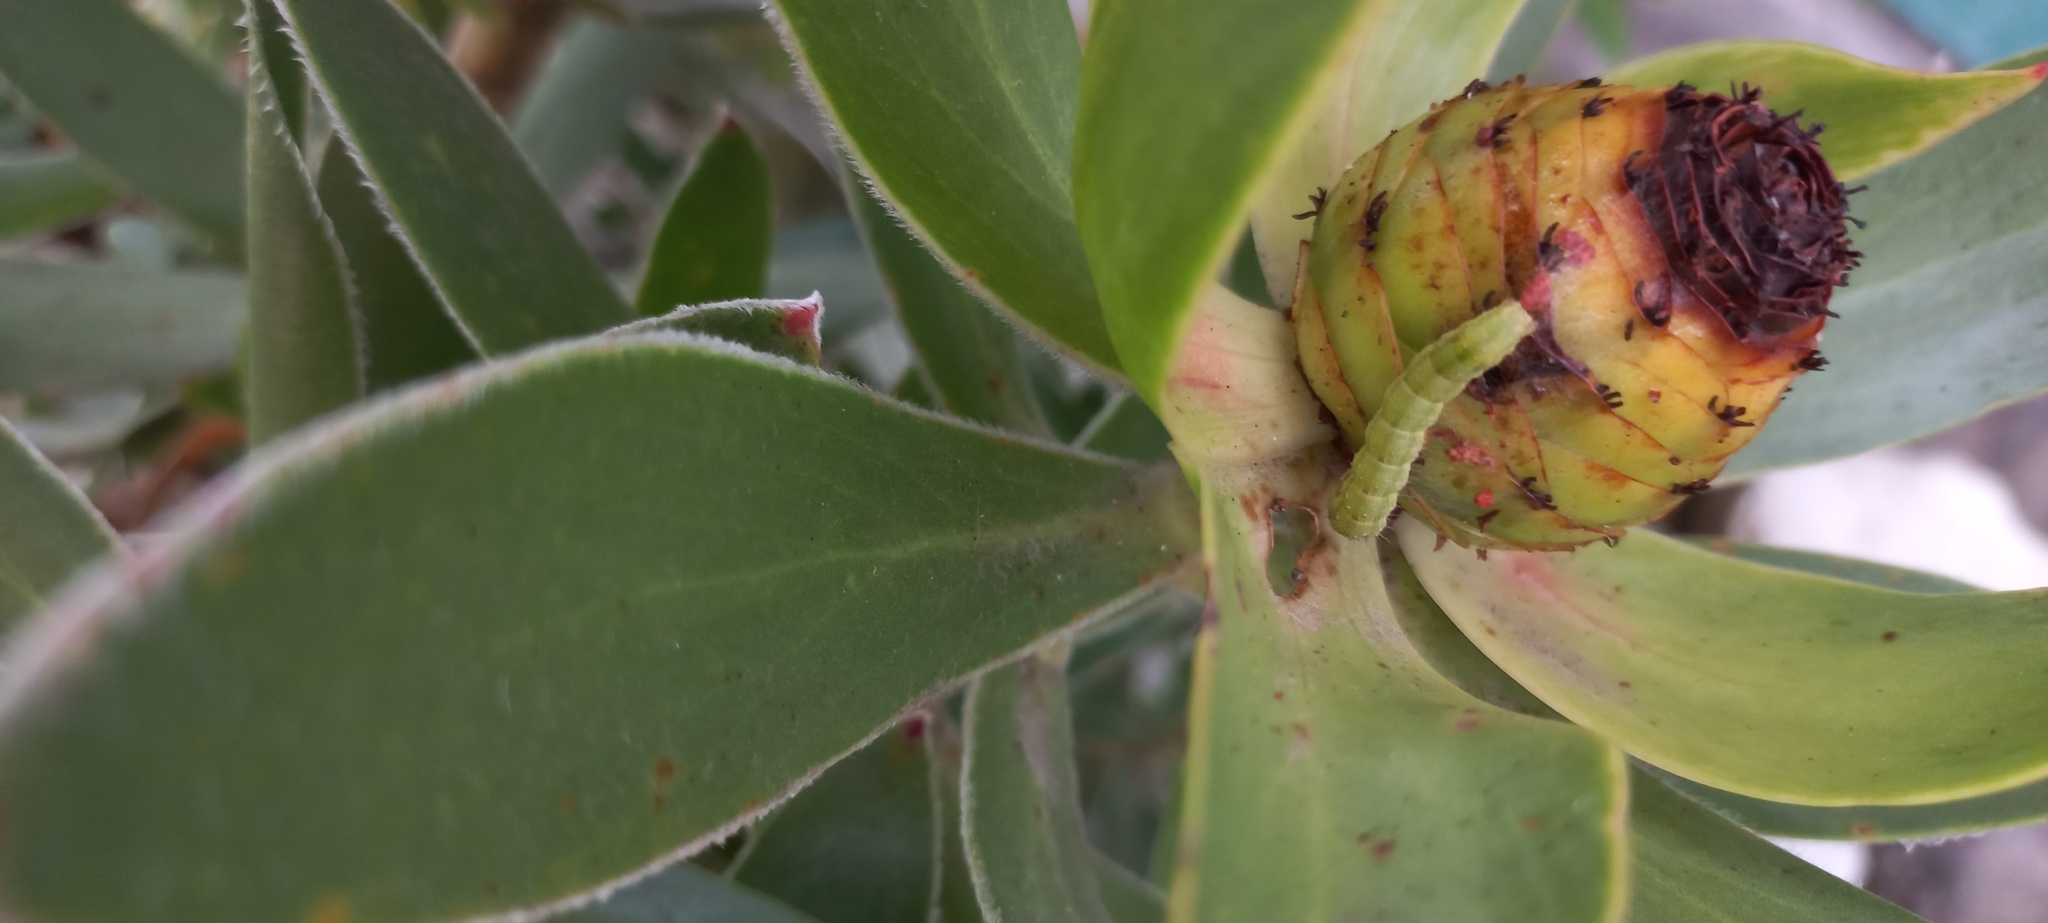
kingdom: Plantae
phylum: Tracheophyta
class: Magnoliopsida
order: Proteales
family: Proteaceae
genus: Leucadendron
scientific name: Leucadendron gandogeri
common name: Broad-leaf conebush
